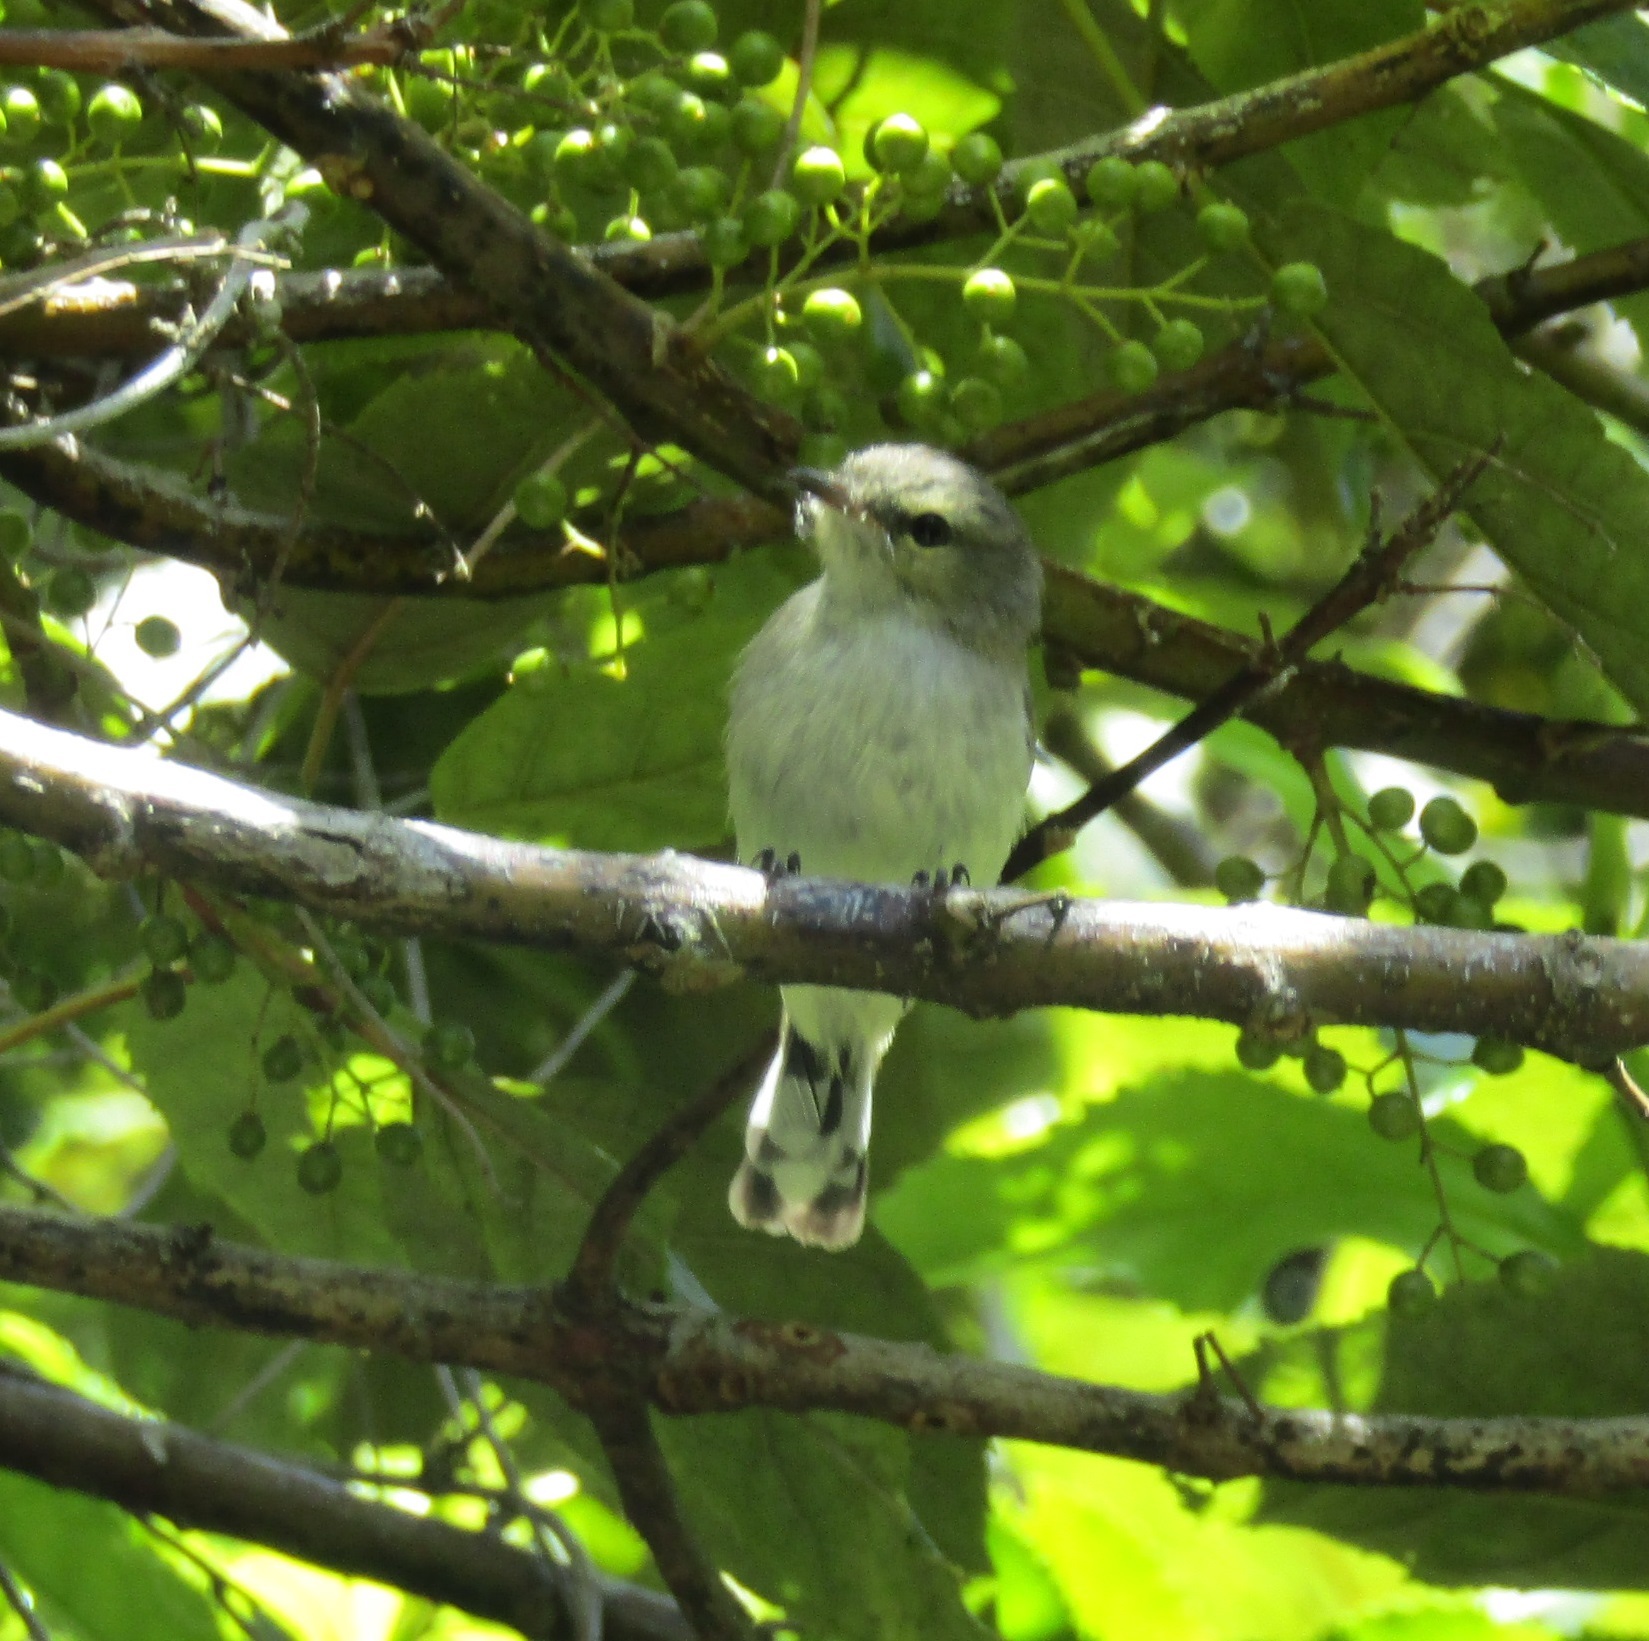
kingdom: Animalia
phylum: Chordata
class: Aves
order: Passeriformes
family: Acanthizidae
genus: Gerygone
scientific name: Gerygone igata
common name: Grey gerygone
